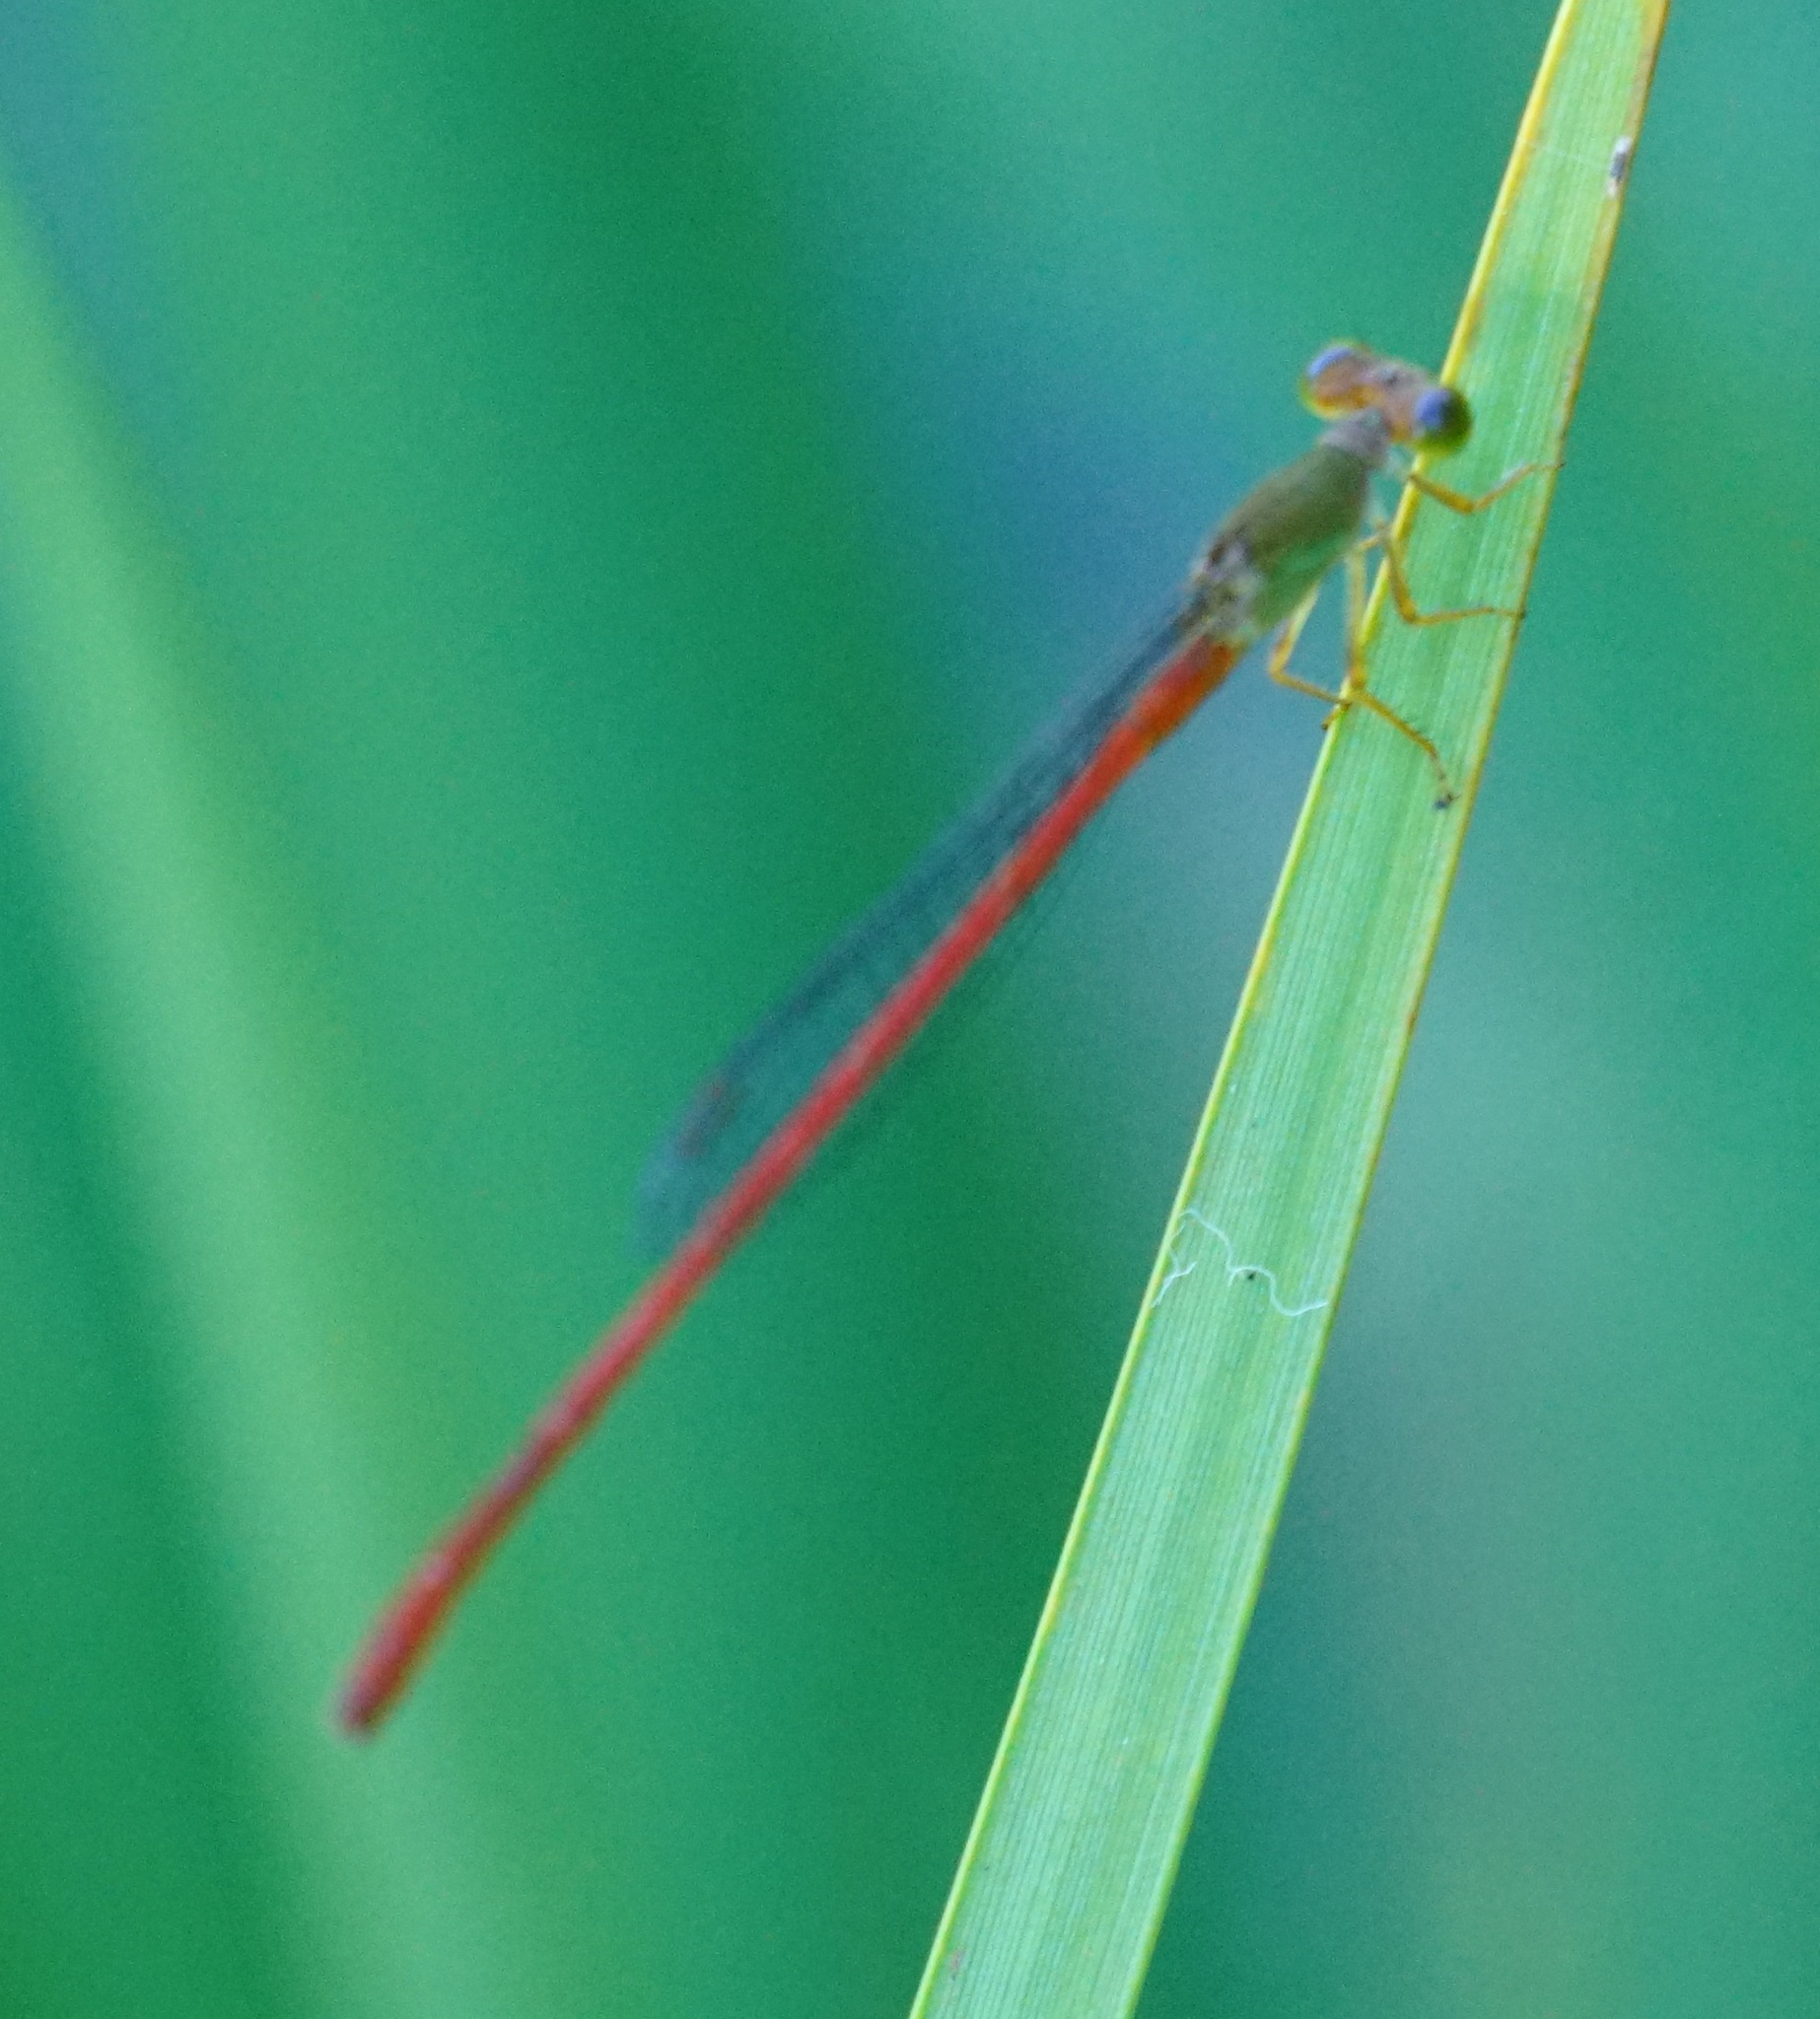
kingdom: Animalia
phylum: Arthropoda
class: Insecta
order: Odonata
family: Coenagrionidae
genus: Ceriagrion
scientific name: Ceriagrion aeruginosum
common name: Redtail
